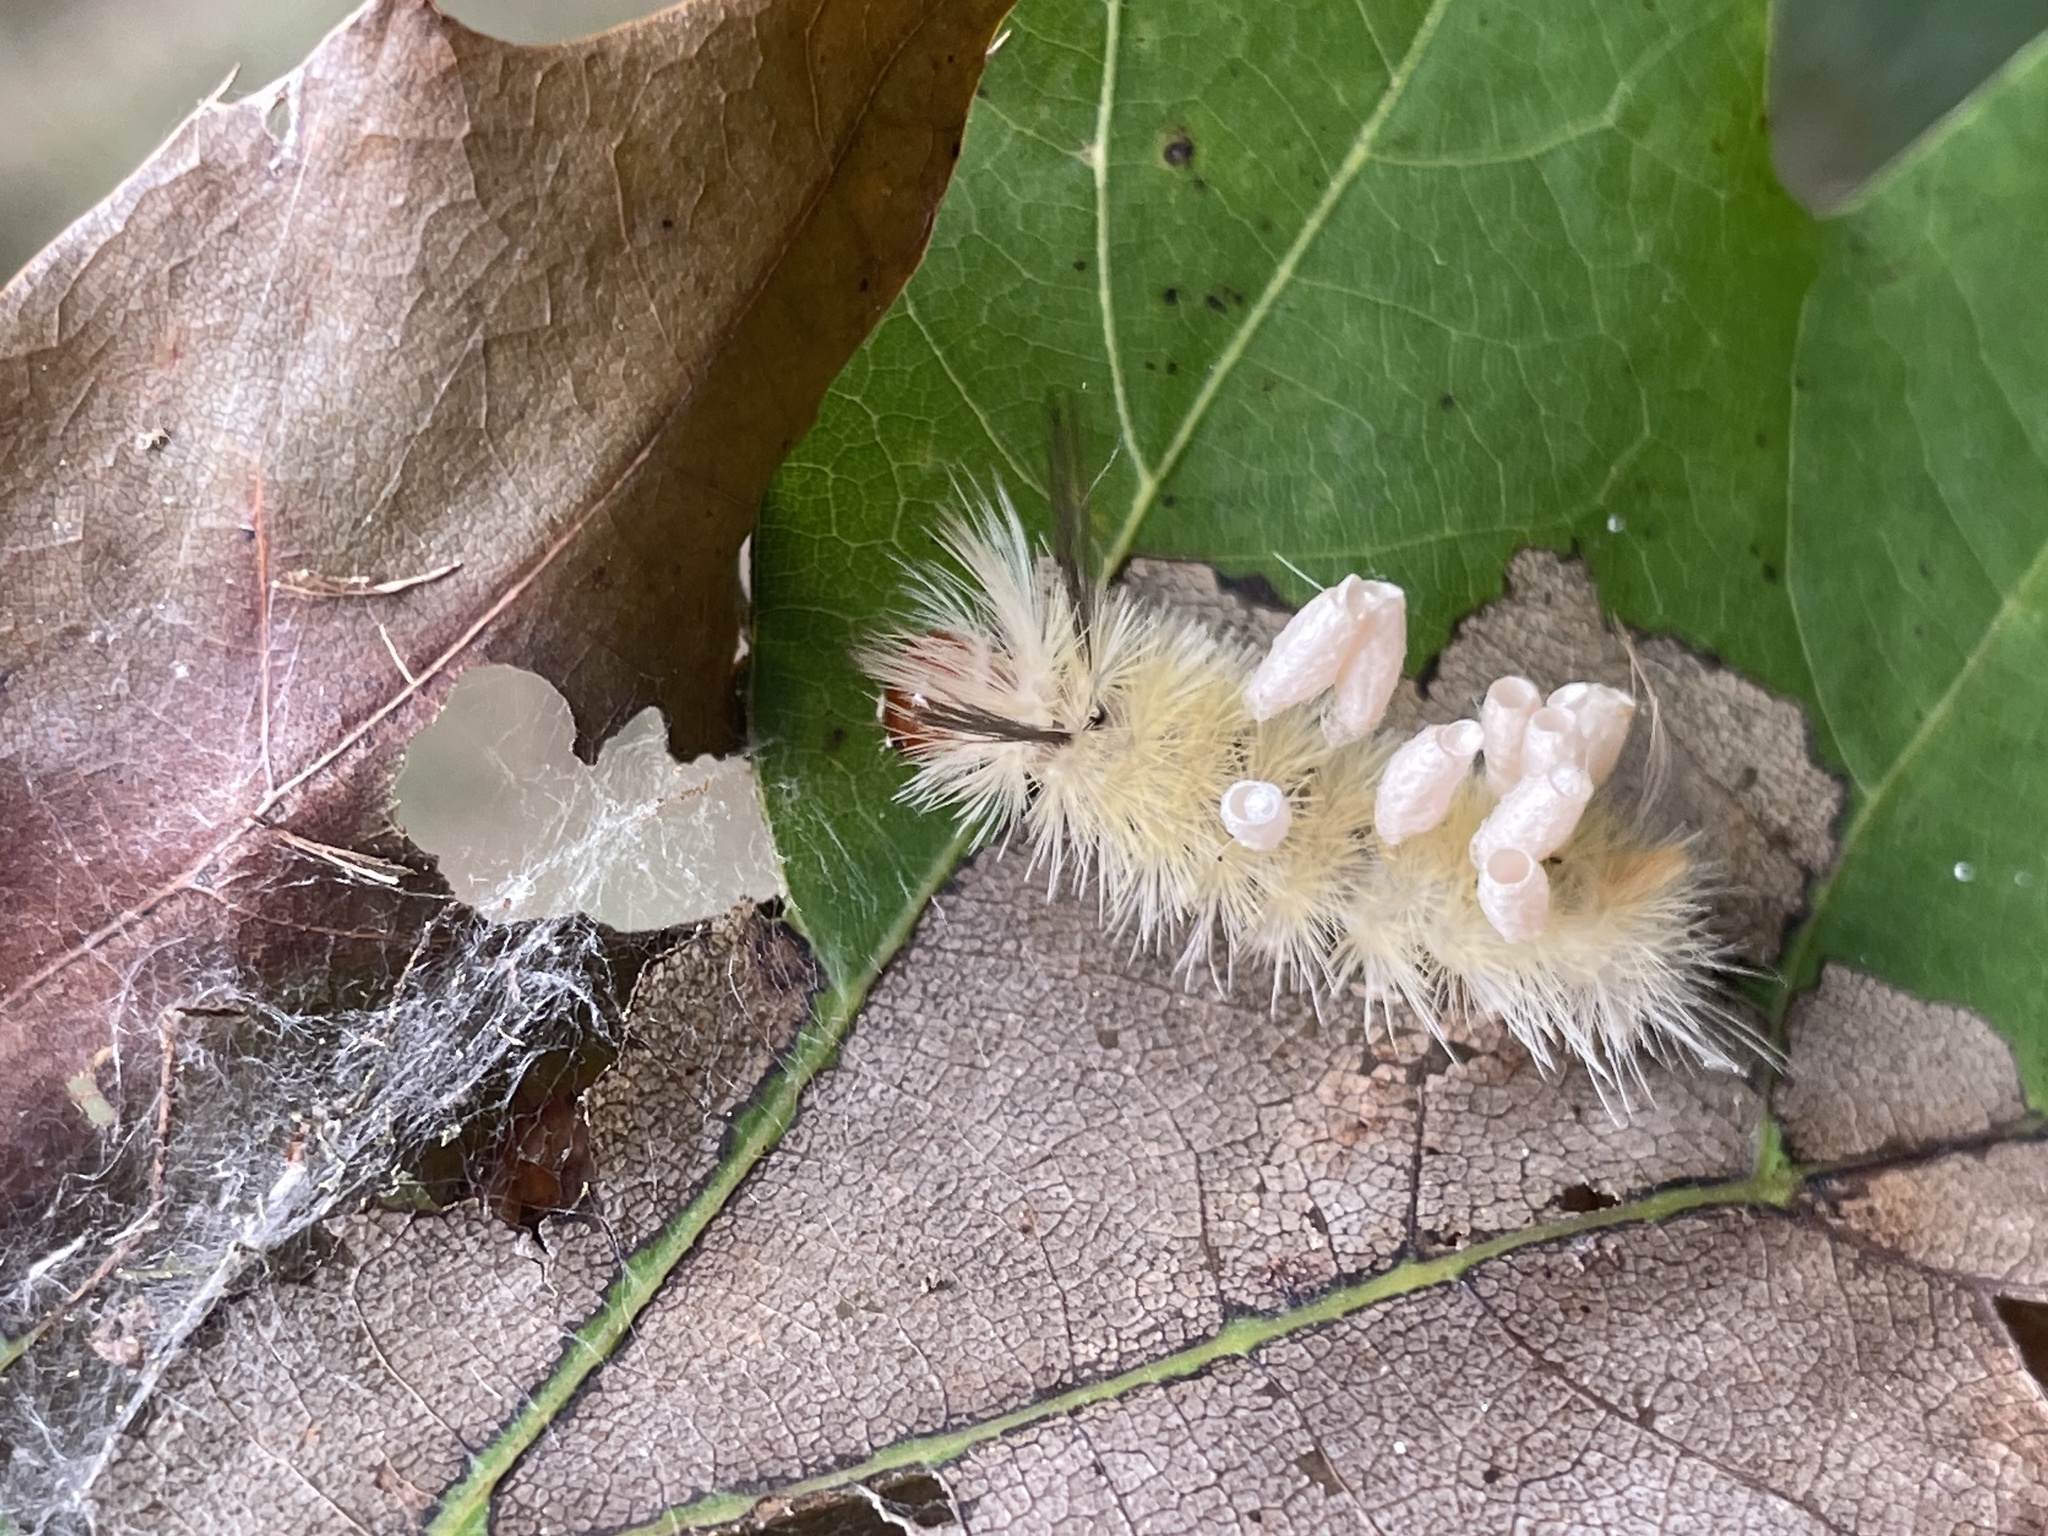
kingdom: Animalia
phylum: Arthropoda
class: Insecta
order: Lepidoptera
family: Erebidae
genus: Halysidota
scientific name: Halysidota tessellaris
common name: Banded tussock moth
